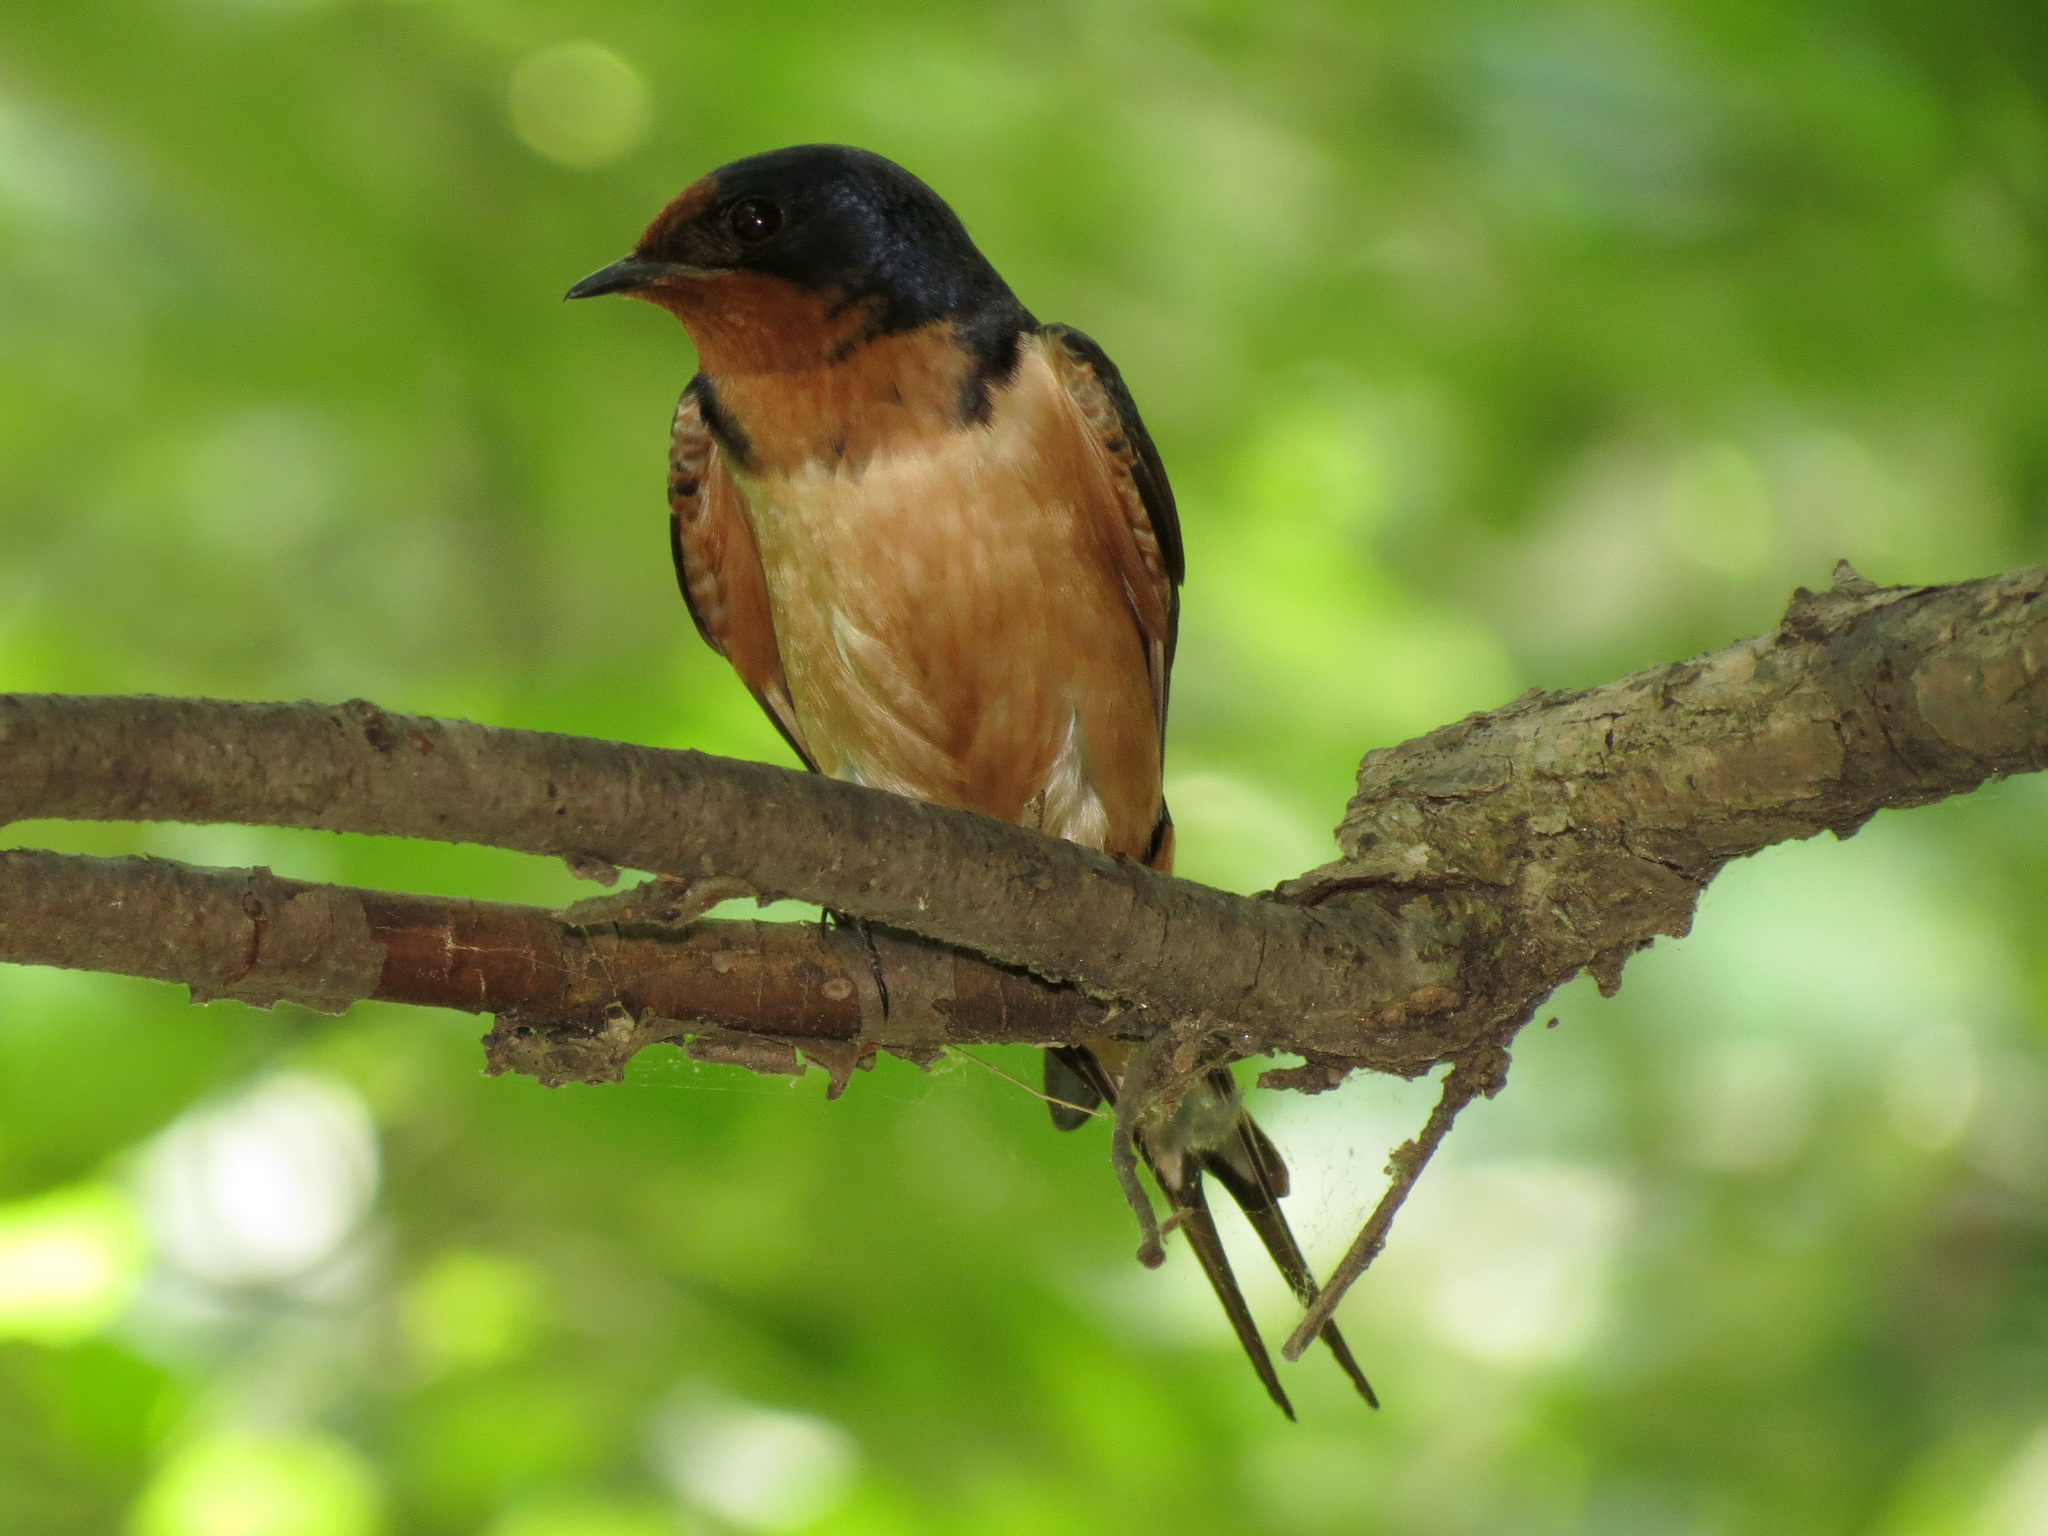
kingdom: Animalia
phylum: Chordata
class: Aves
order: Passeriformes
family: Hirundinidae
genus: Hirundo
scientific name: Hirundo rustica
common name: Barn swallow
